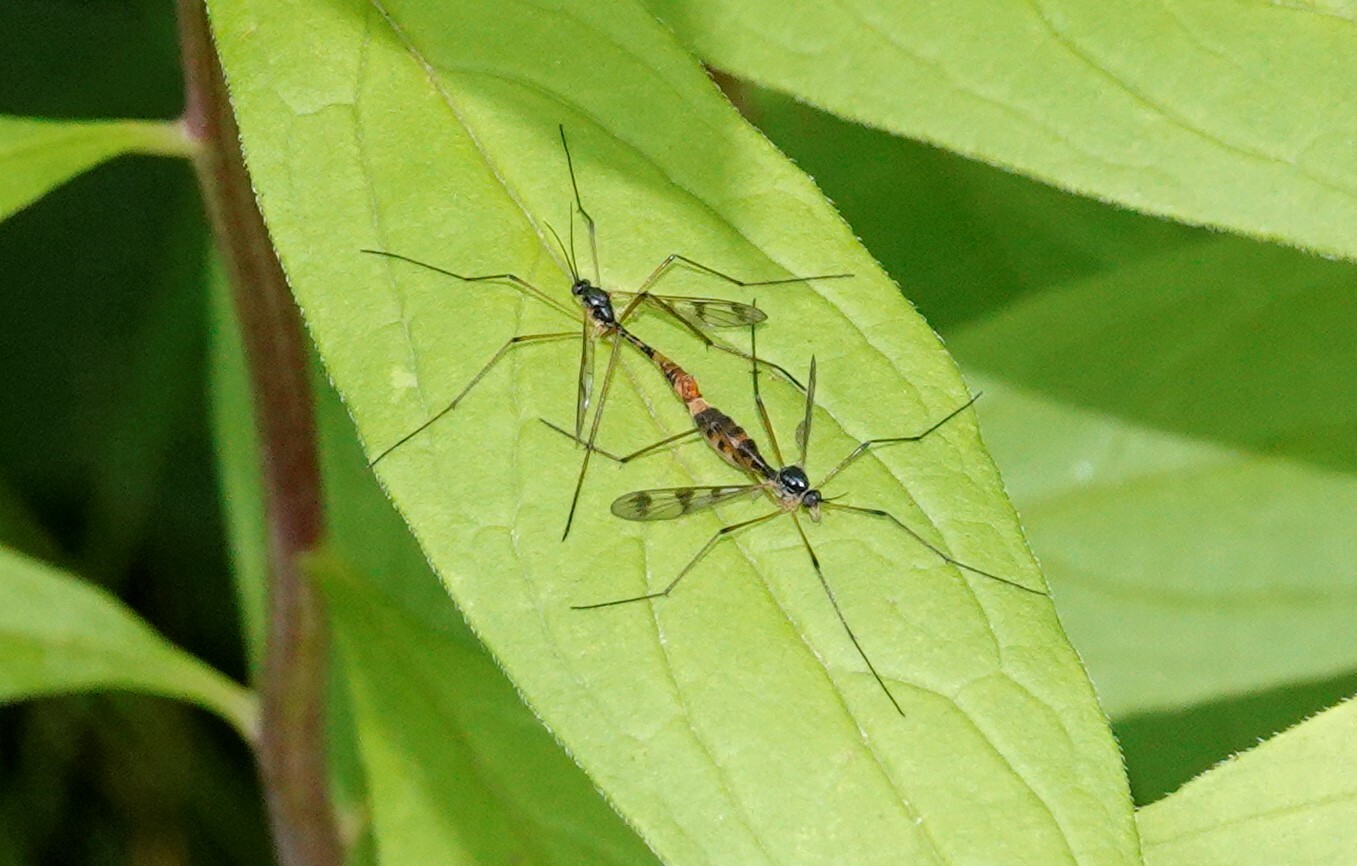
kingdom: Animalia
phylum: Arthropoda
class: Insecta
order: Diptera
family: Ptychopteridae
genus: Ptychoptera
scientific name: Ptychoptera quadrifasciata
